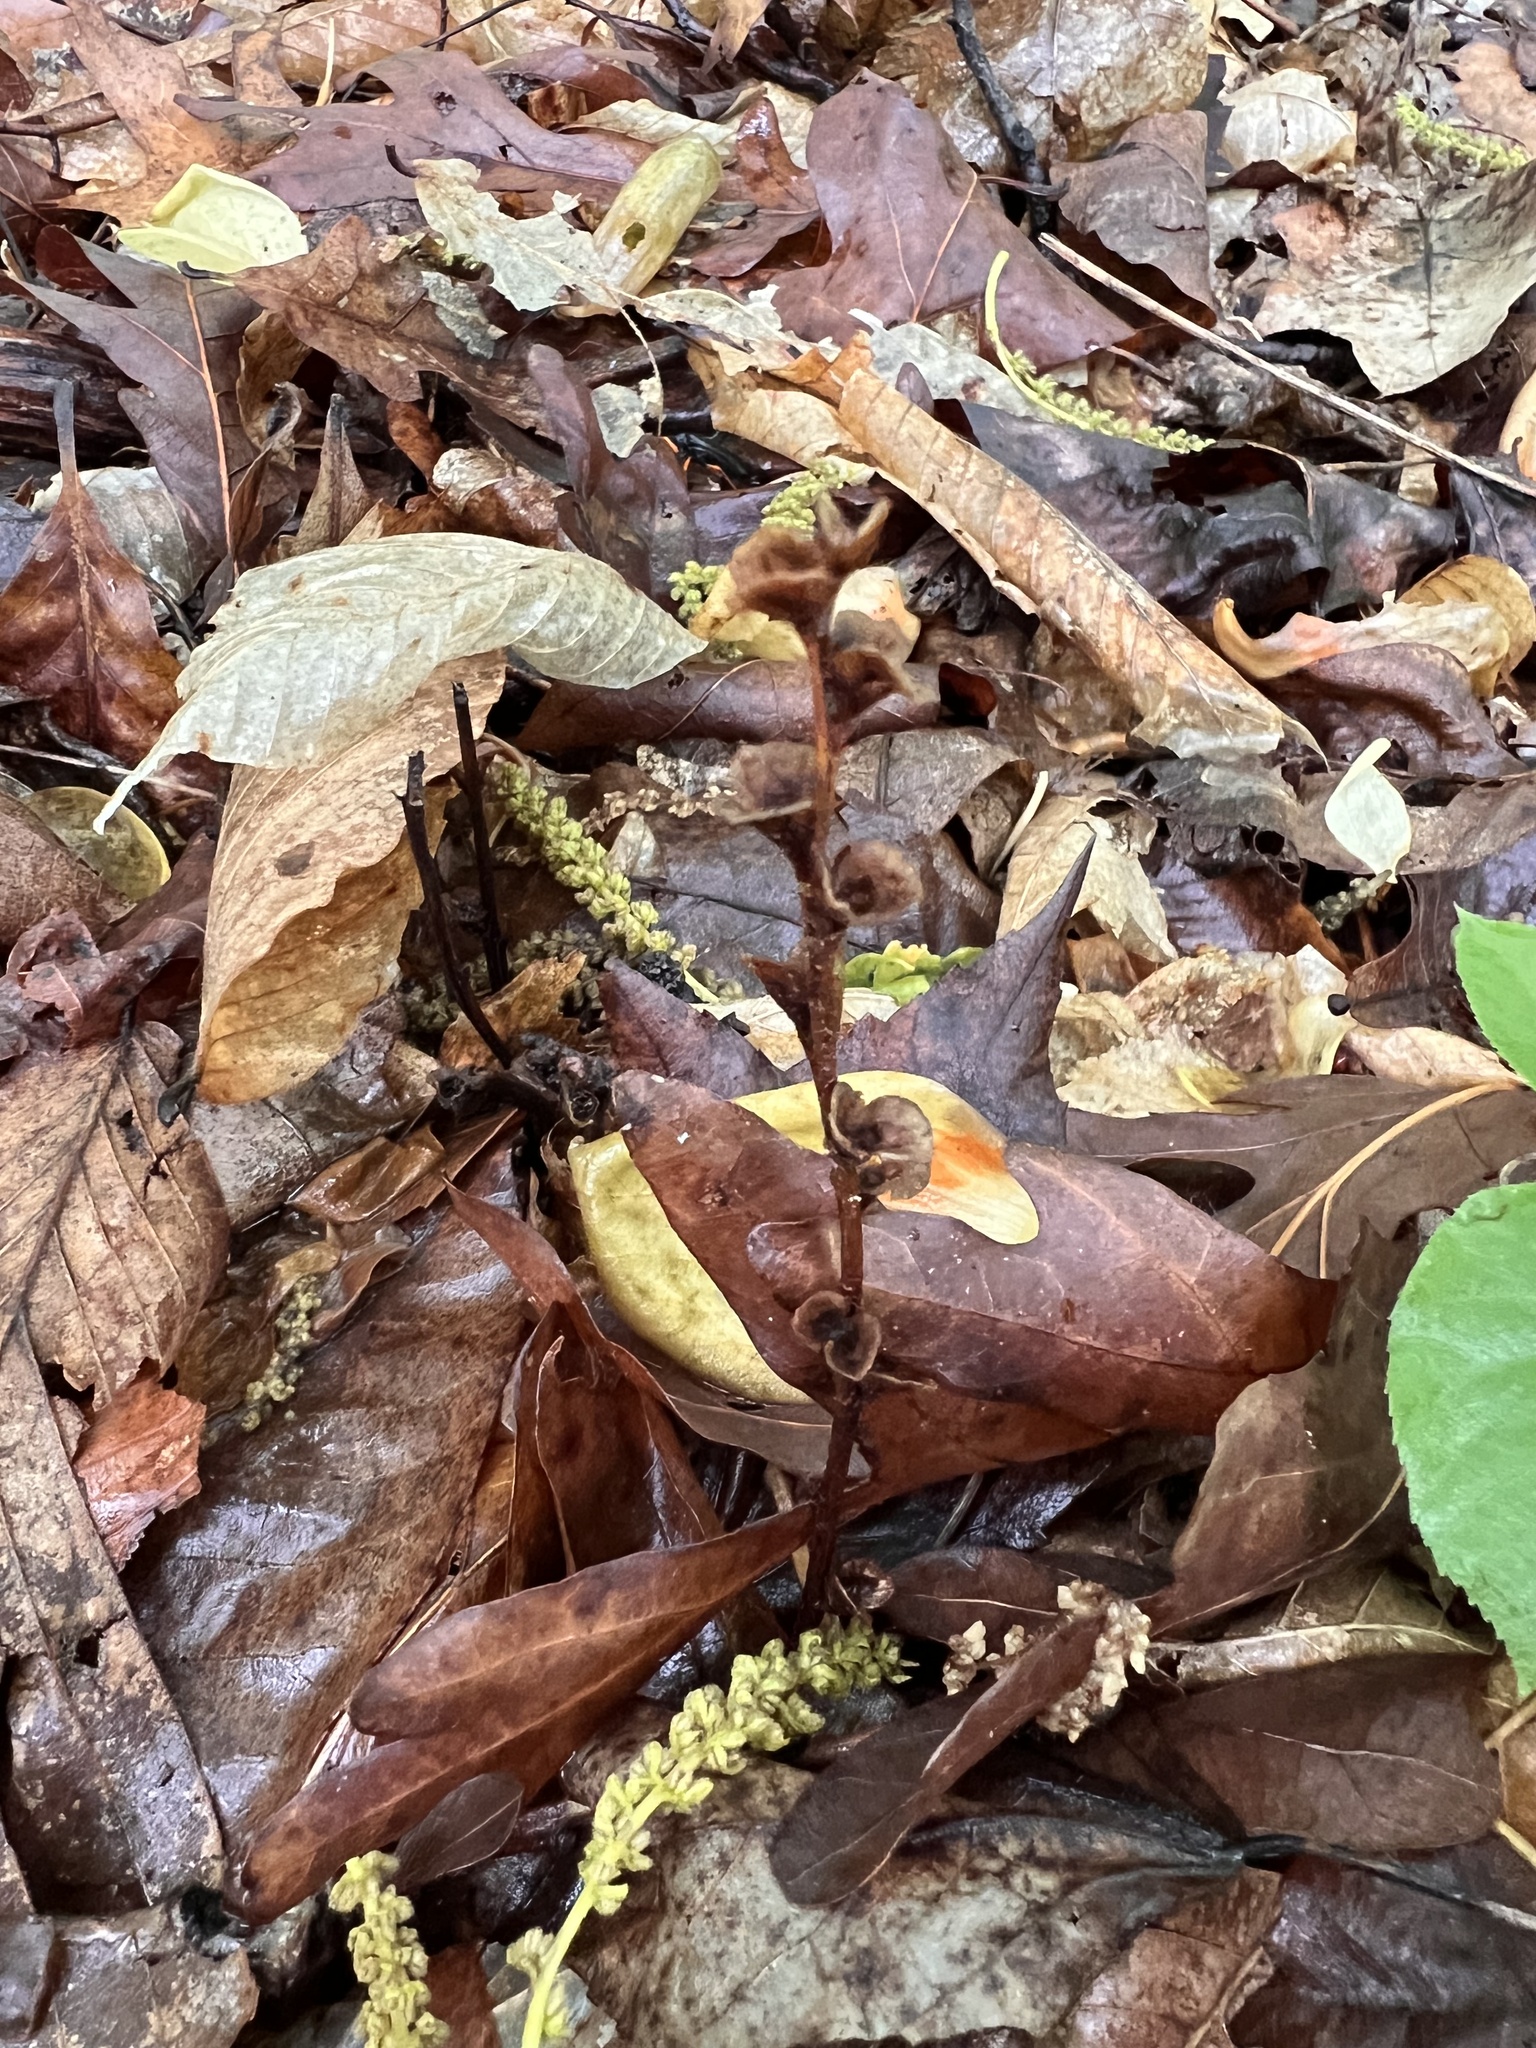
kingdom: Plantae
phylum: Tracheophyta
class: Magnoliopsida
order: Lamiales
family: Orobanchaceae
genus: Epifagus
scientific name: Epifagus virginiana
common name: Beechdrops
